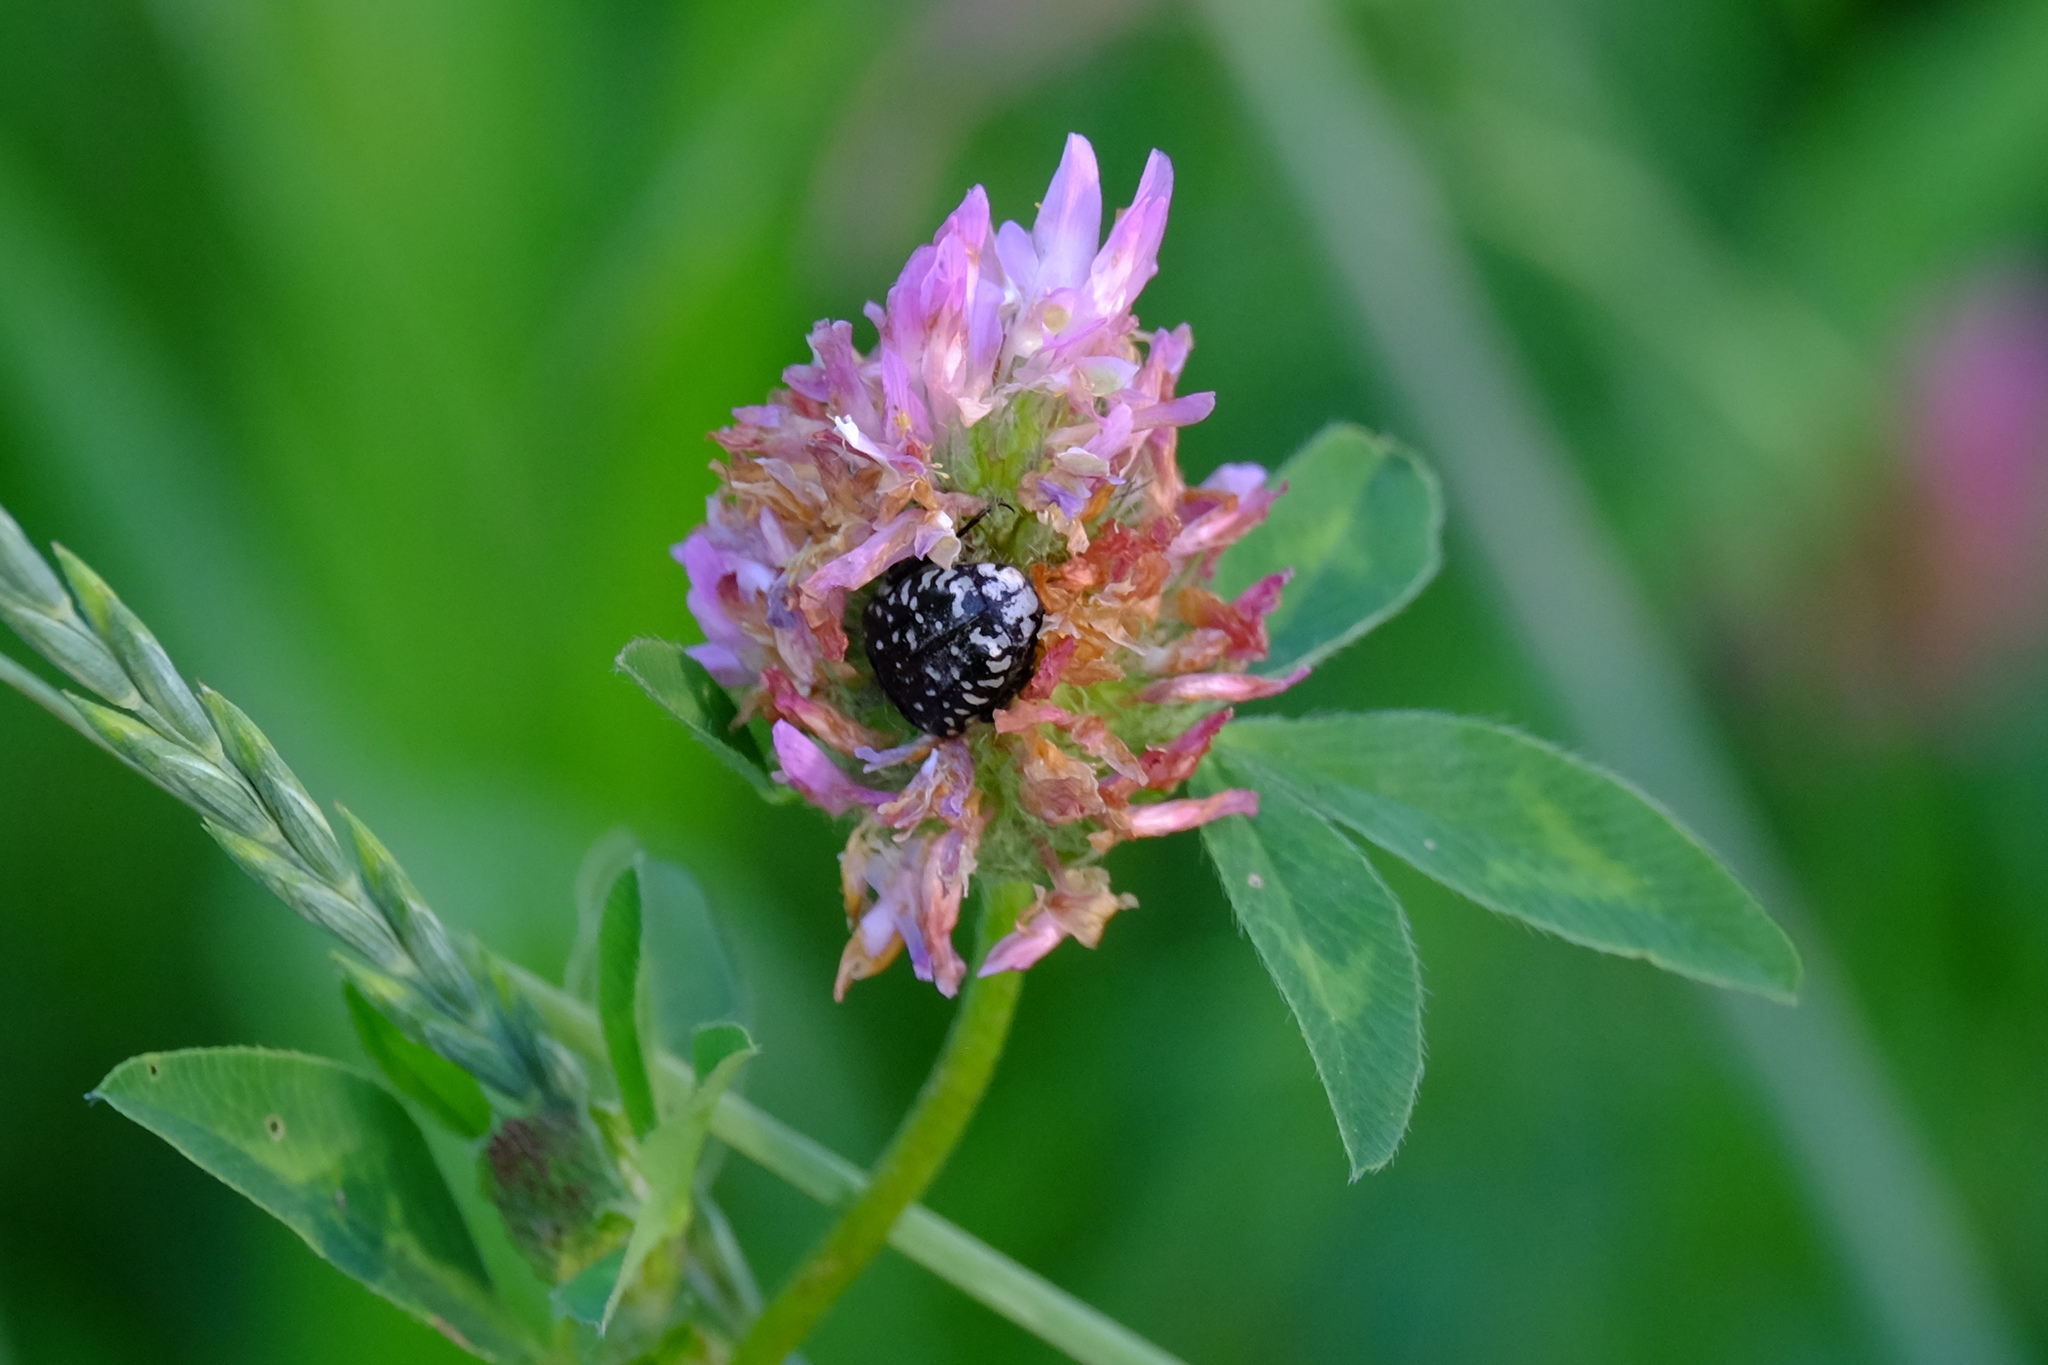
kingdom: Animalia
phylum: Arthropoda
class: Insecta
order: Coleoptera
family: Scarabaeidae
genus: Oxythyrea
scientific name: Oxythyrea funesta
